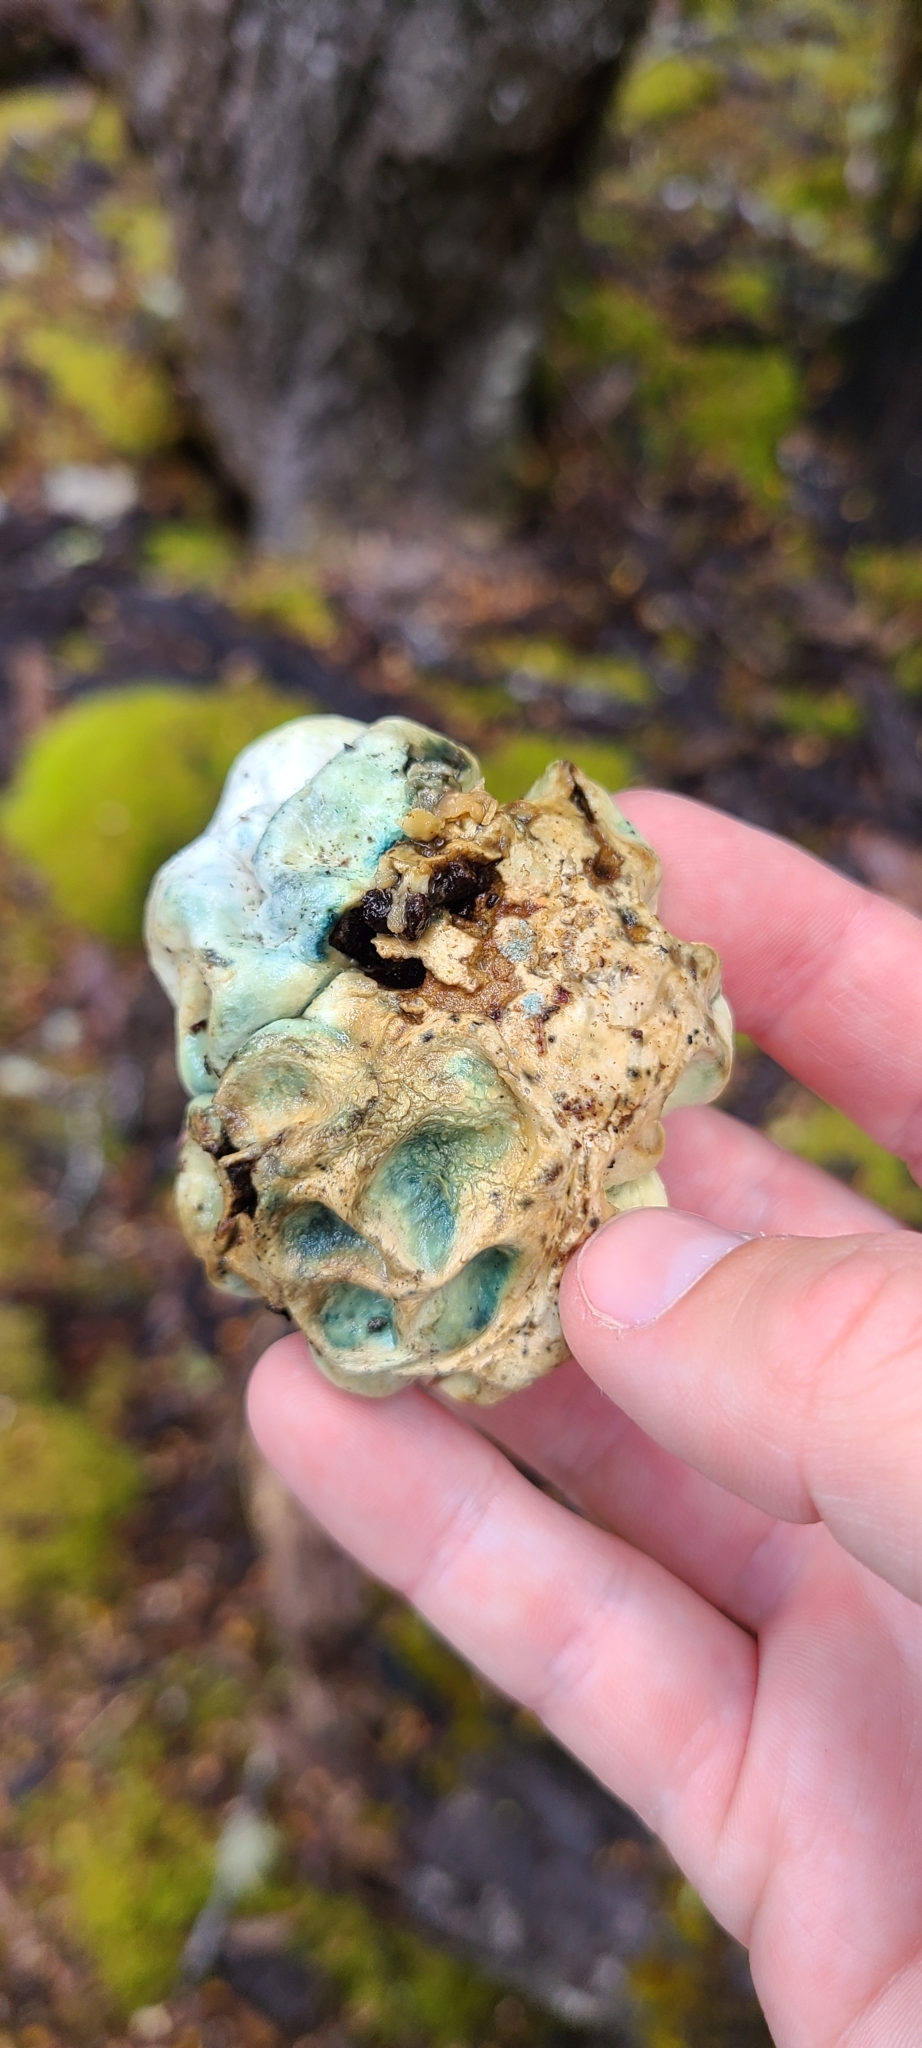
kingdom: Fungi
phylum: Basidiomycota
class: Agaricomycetes
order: Boletales
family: Boletaceae
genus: Leccinum
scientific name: Leccinum pachyderme
